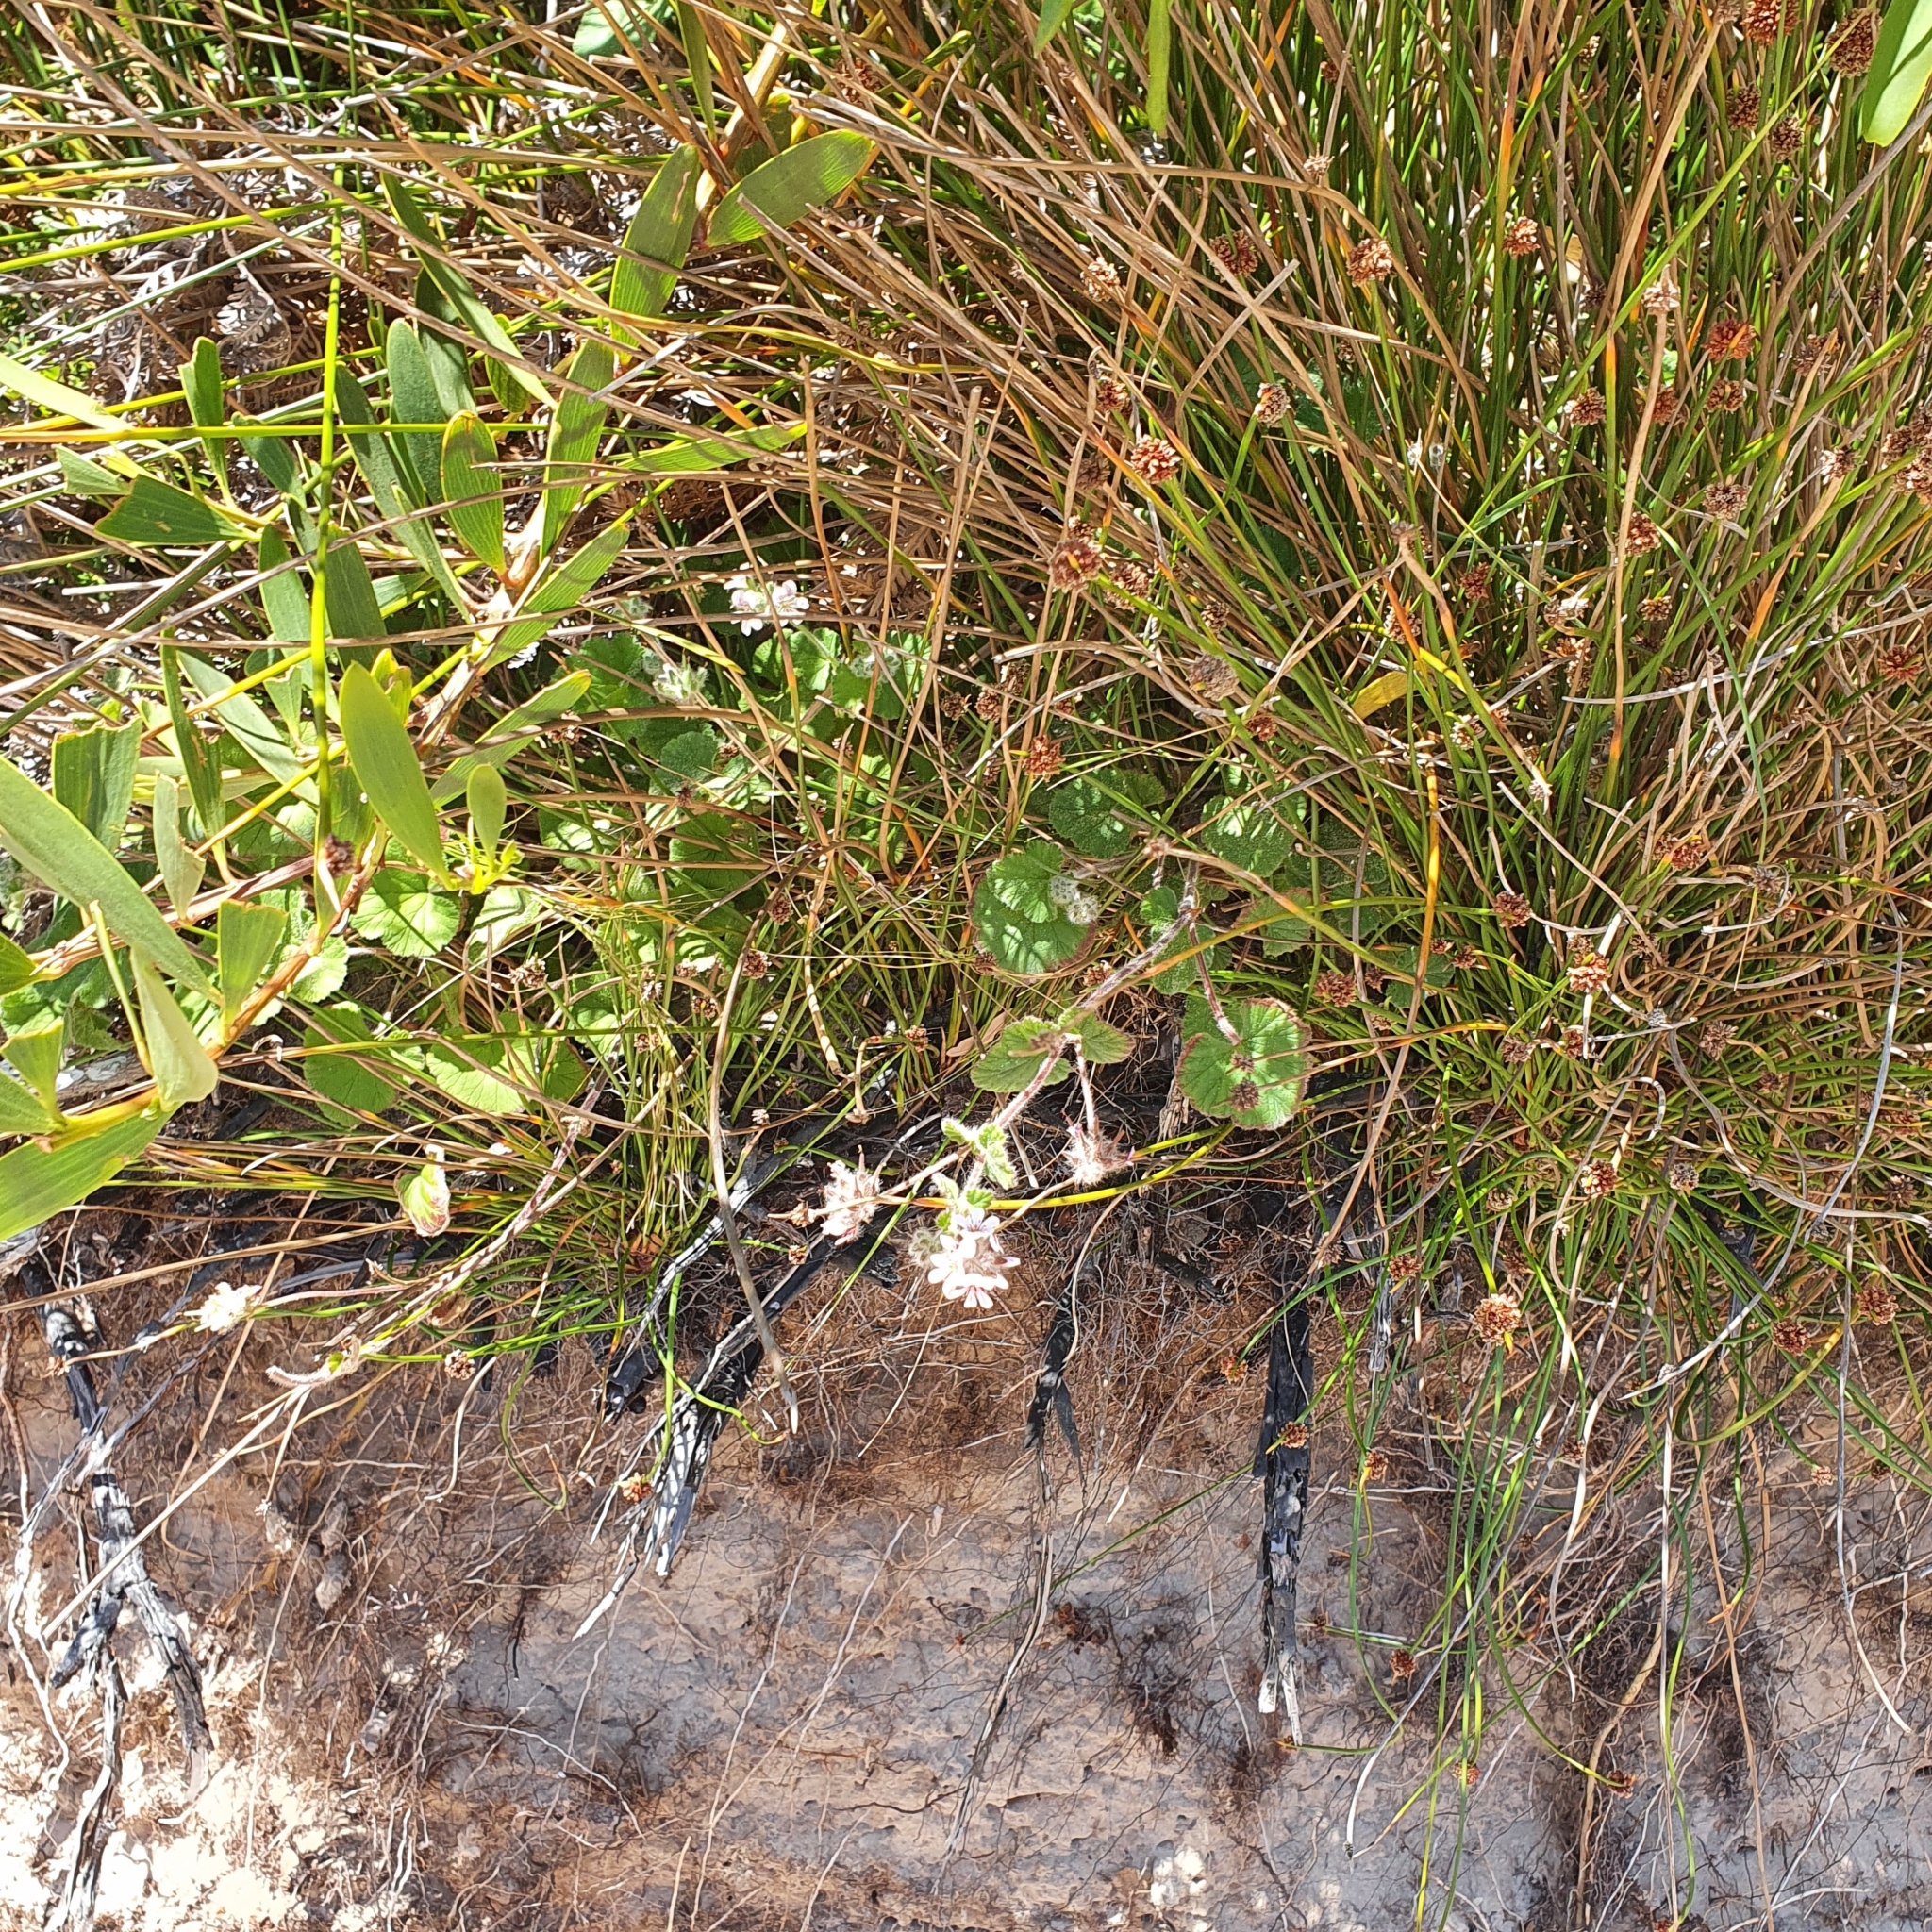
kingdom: Plantae
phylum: Tracheophyta
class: Magnoliopsida
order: Geraniales
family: Geraniaceae
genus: Pelargonium
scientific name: Pelargonium australe
